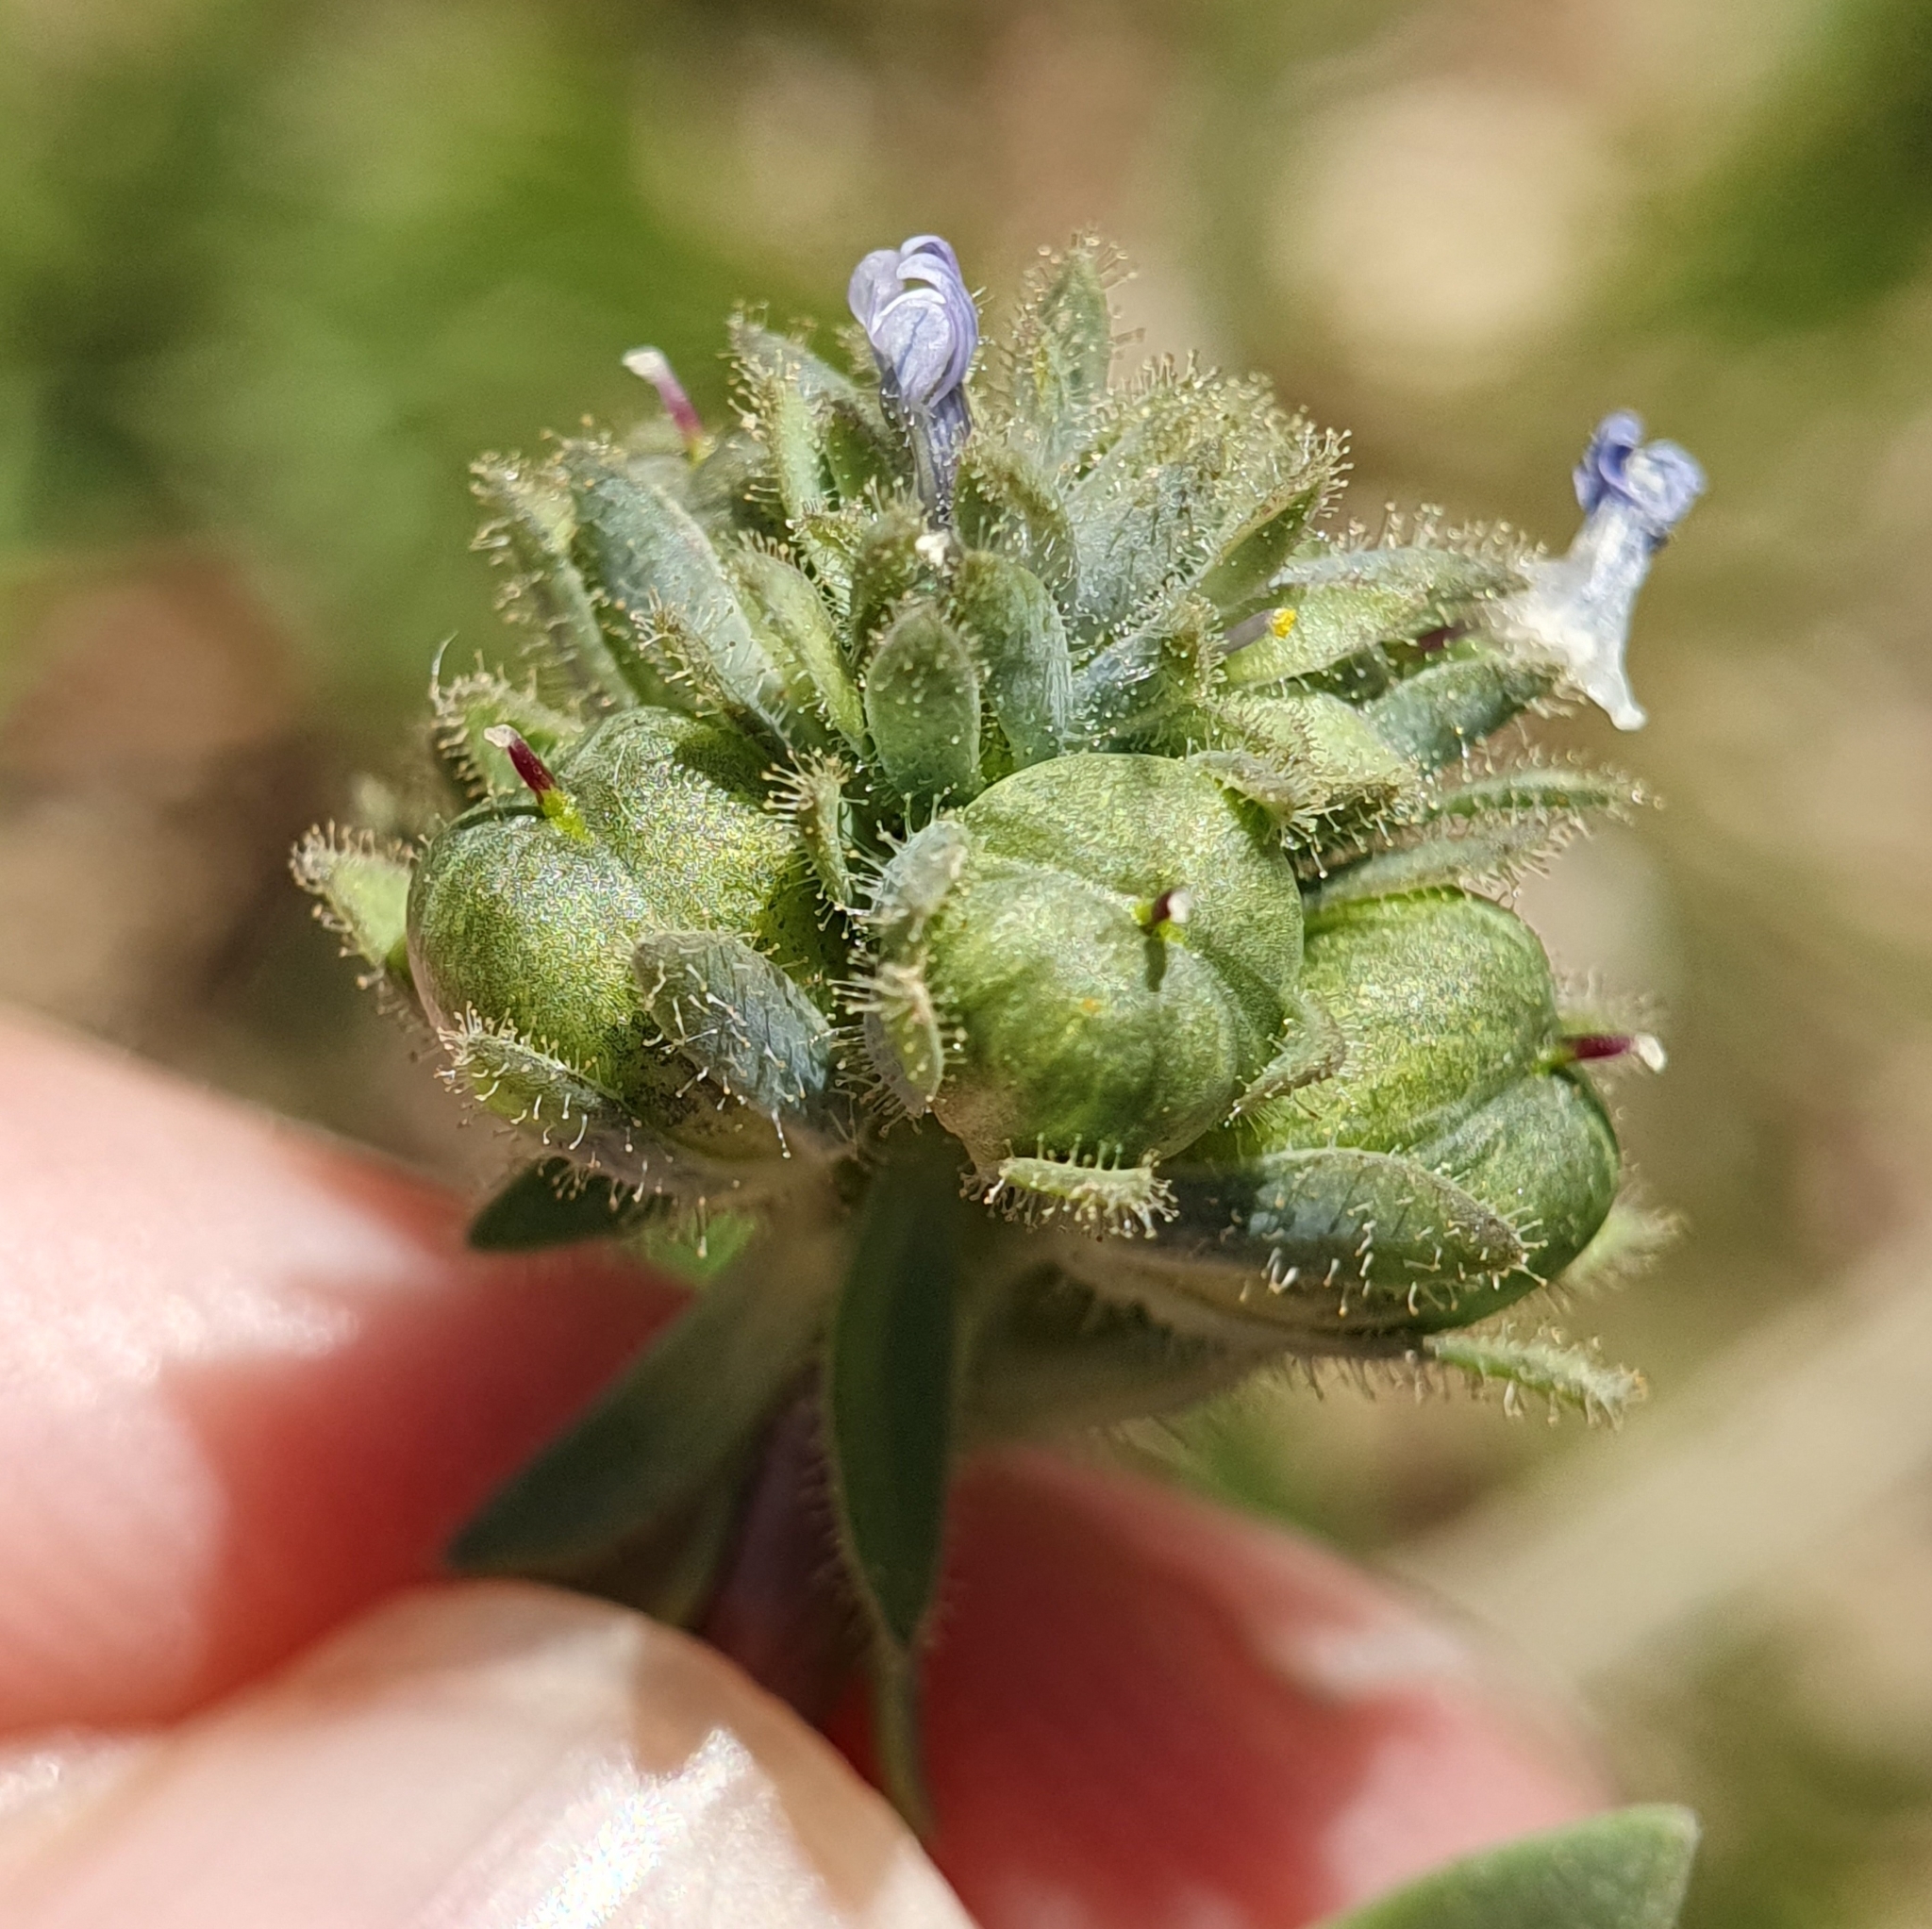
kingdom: Plantae
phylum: Tracheophyta
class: Magnoliopsida
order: Lamiales
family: Plantaginaceae
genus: Linaria
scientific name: Linaria micrantha
